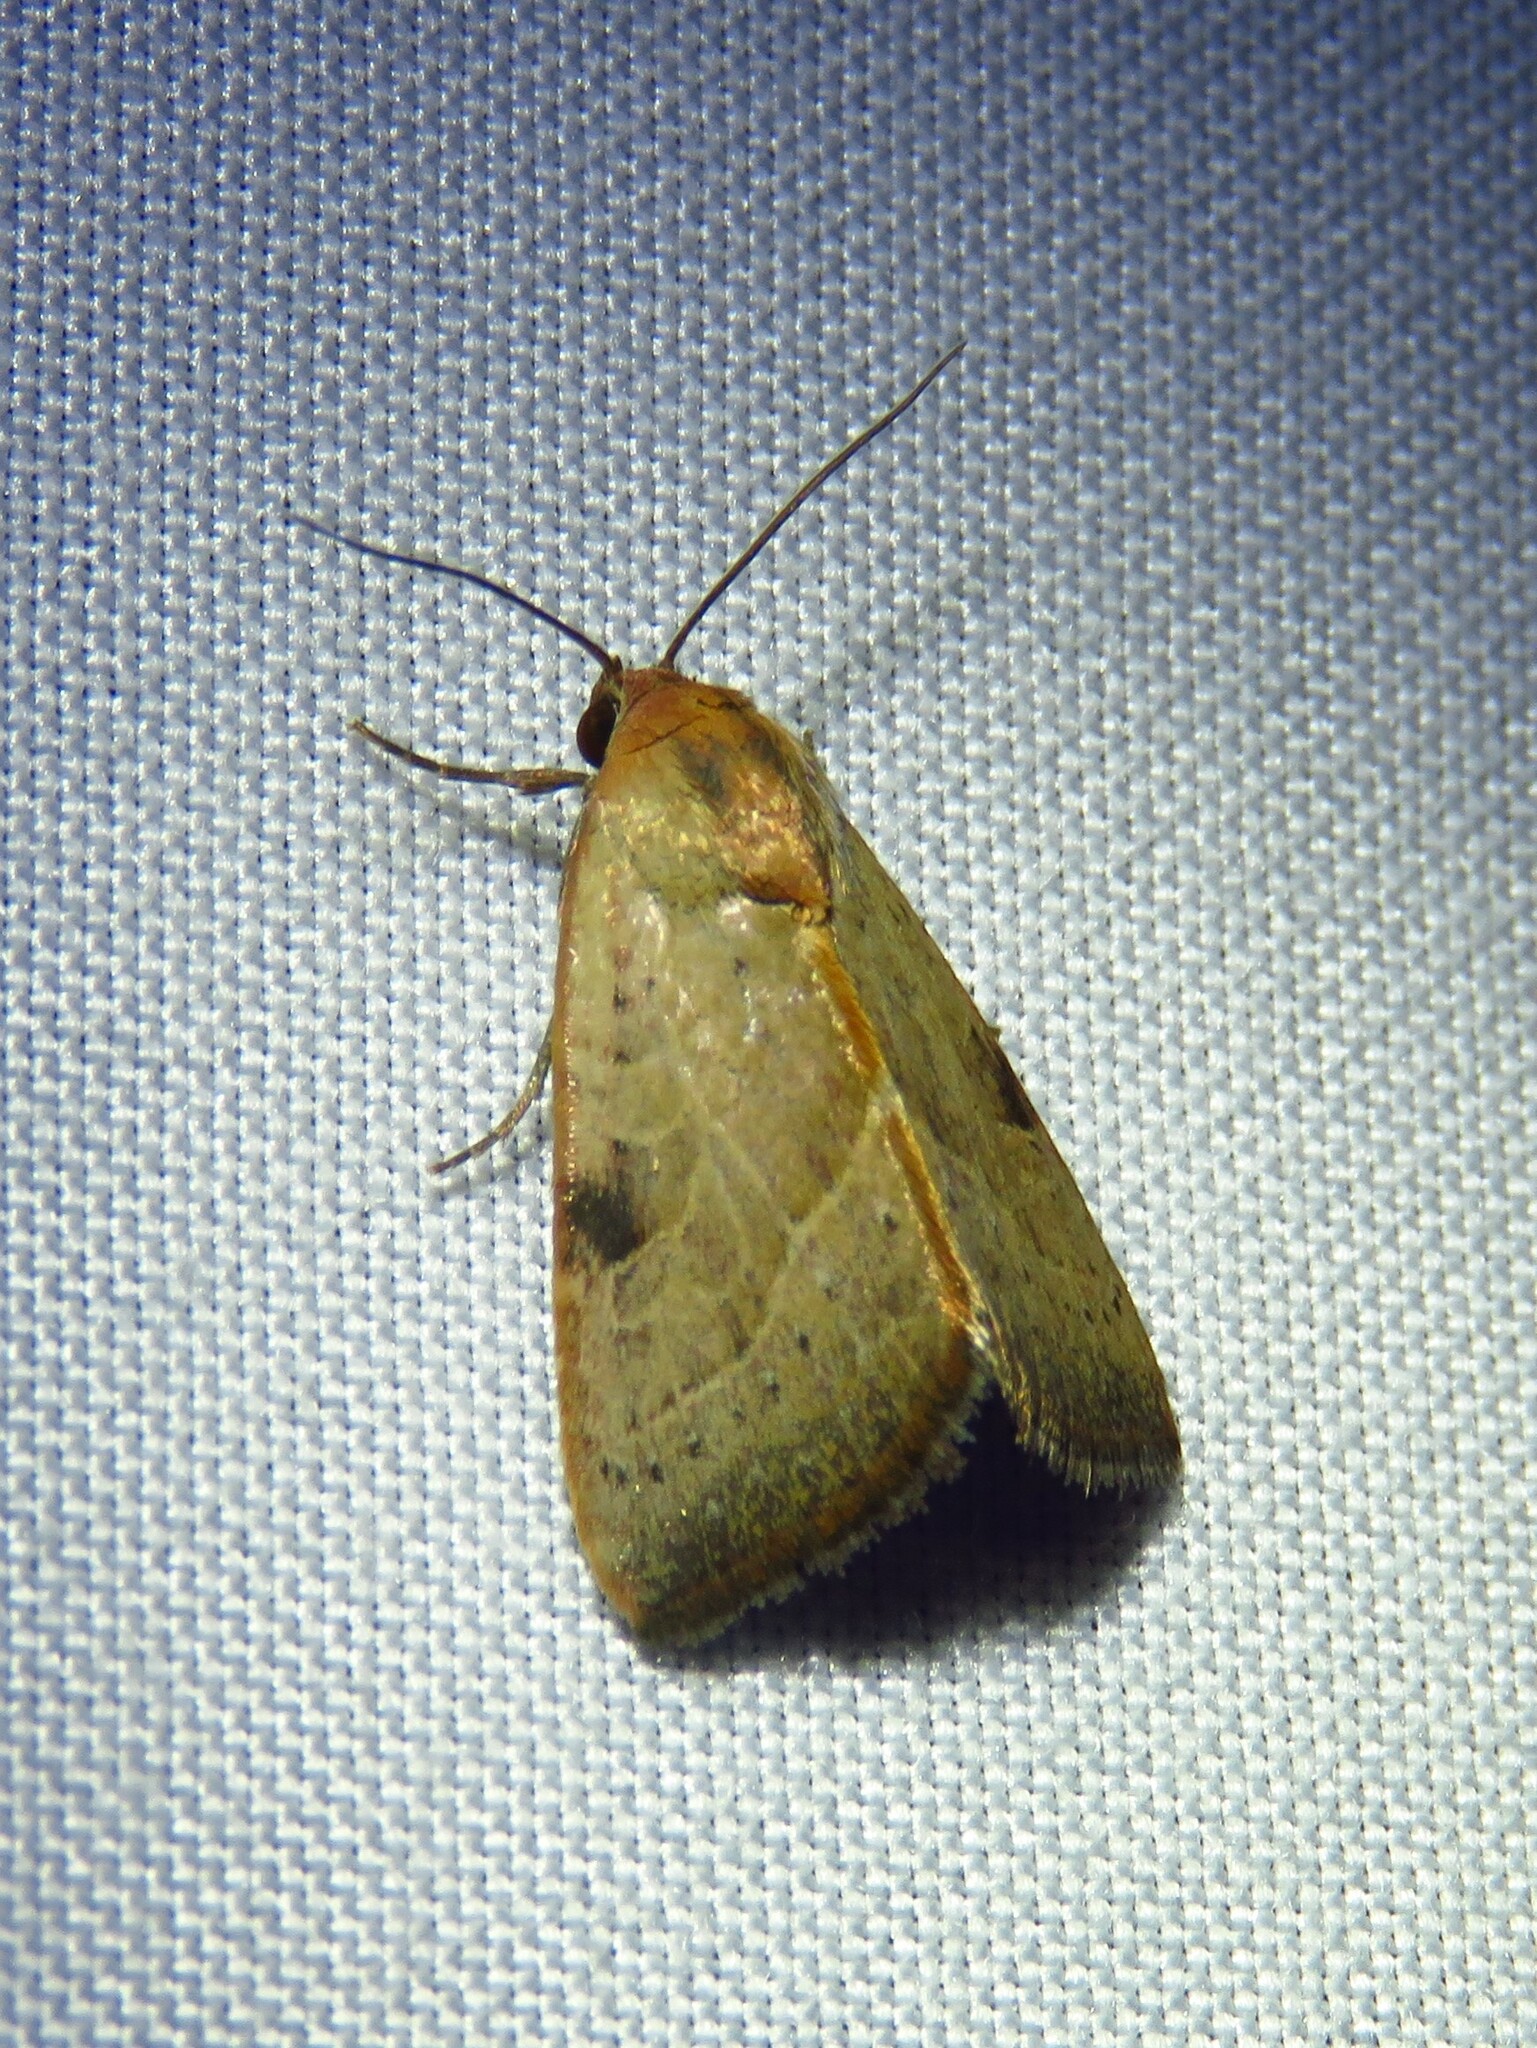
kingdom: Animalia
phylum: Arthropoda
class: Insecta
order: Lepidoptera
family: Noctuidae
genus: Galgula
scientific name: Galgula partita
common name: Wedgeling
